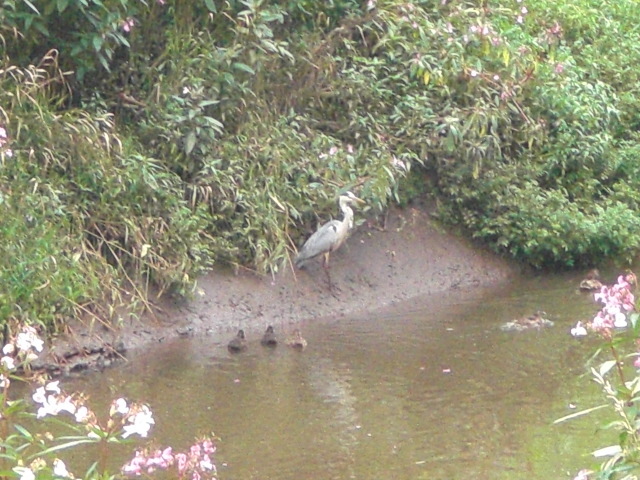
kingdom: Animalia
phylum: Chordata
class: Aves
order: Pelecaniformes
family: Ardeidae
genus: Ardea
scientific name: Ardea cinerea
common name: Grey heron
